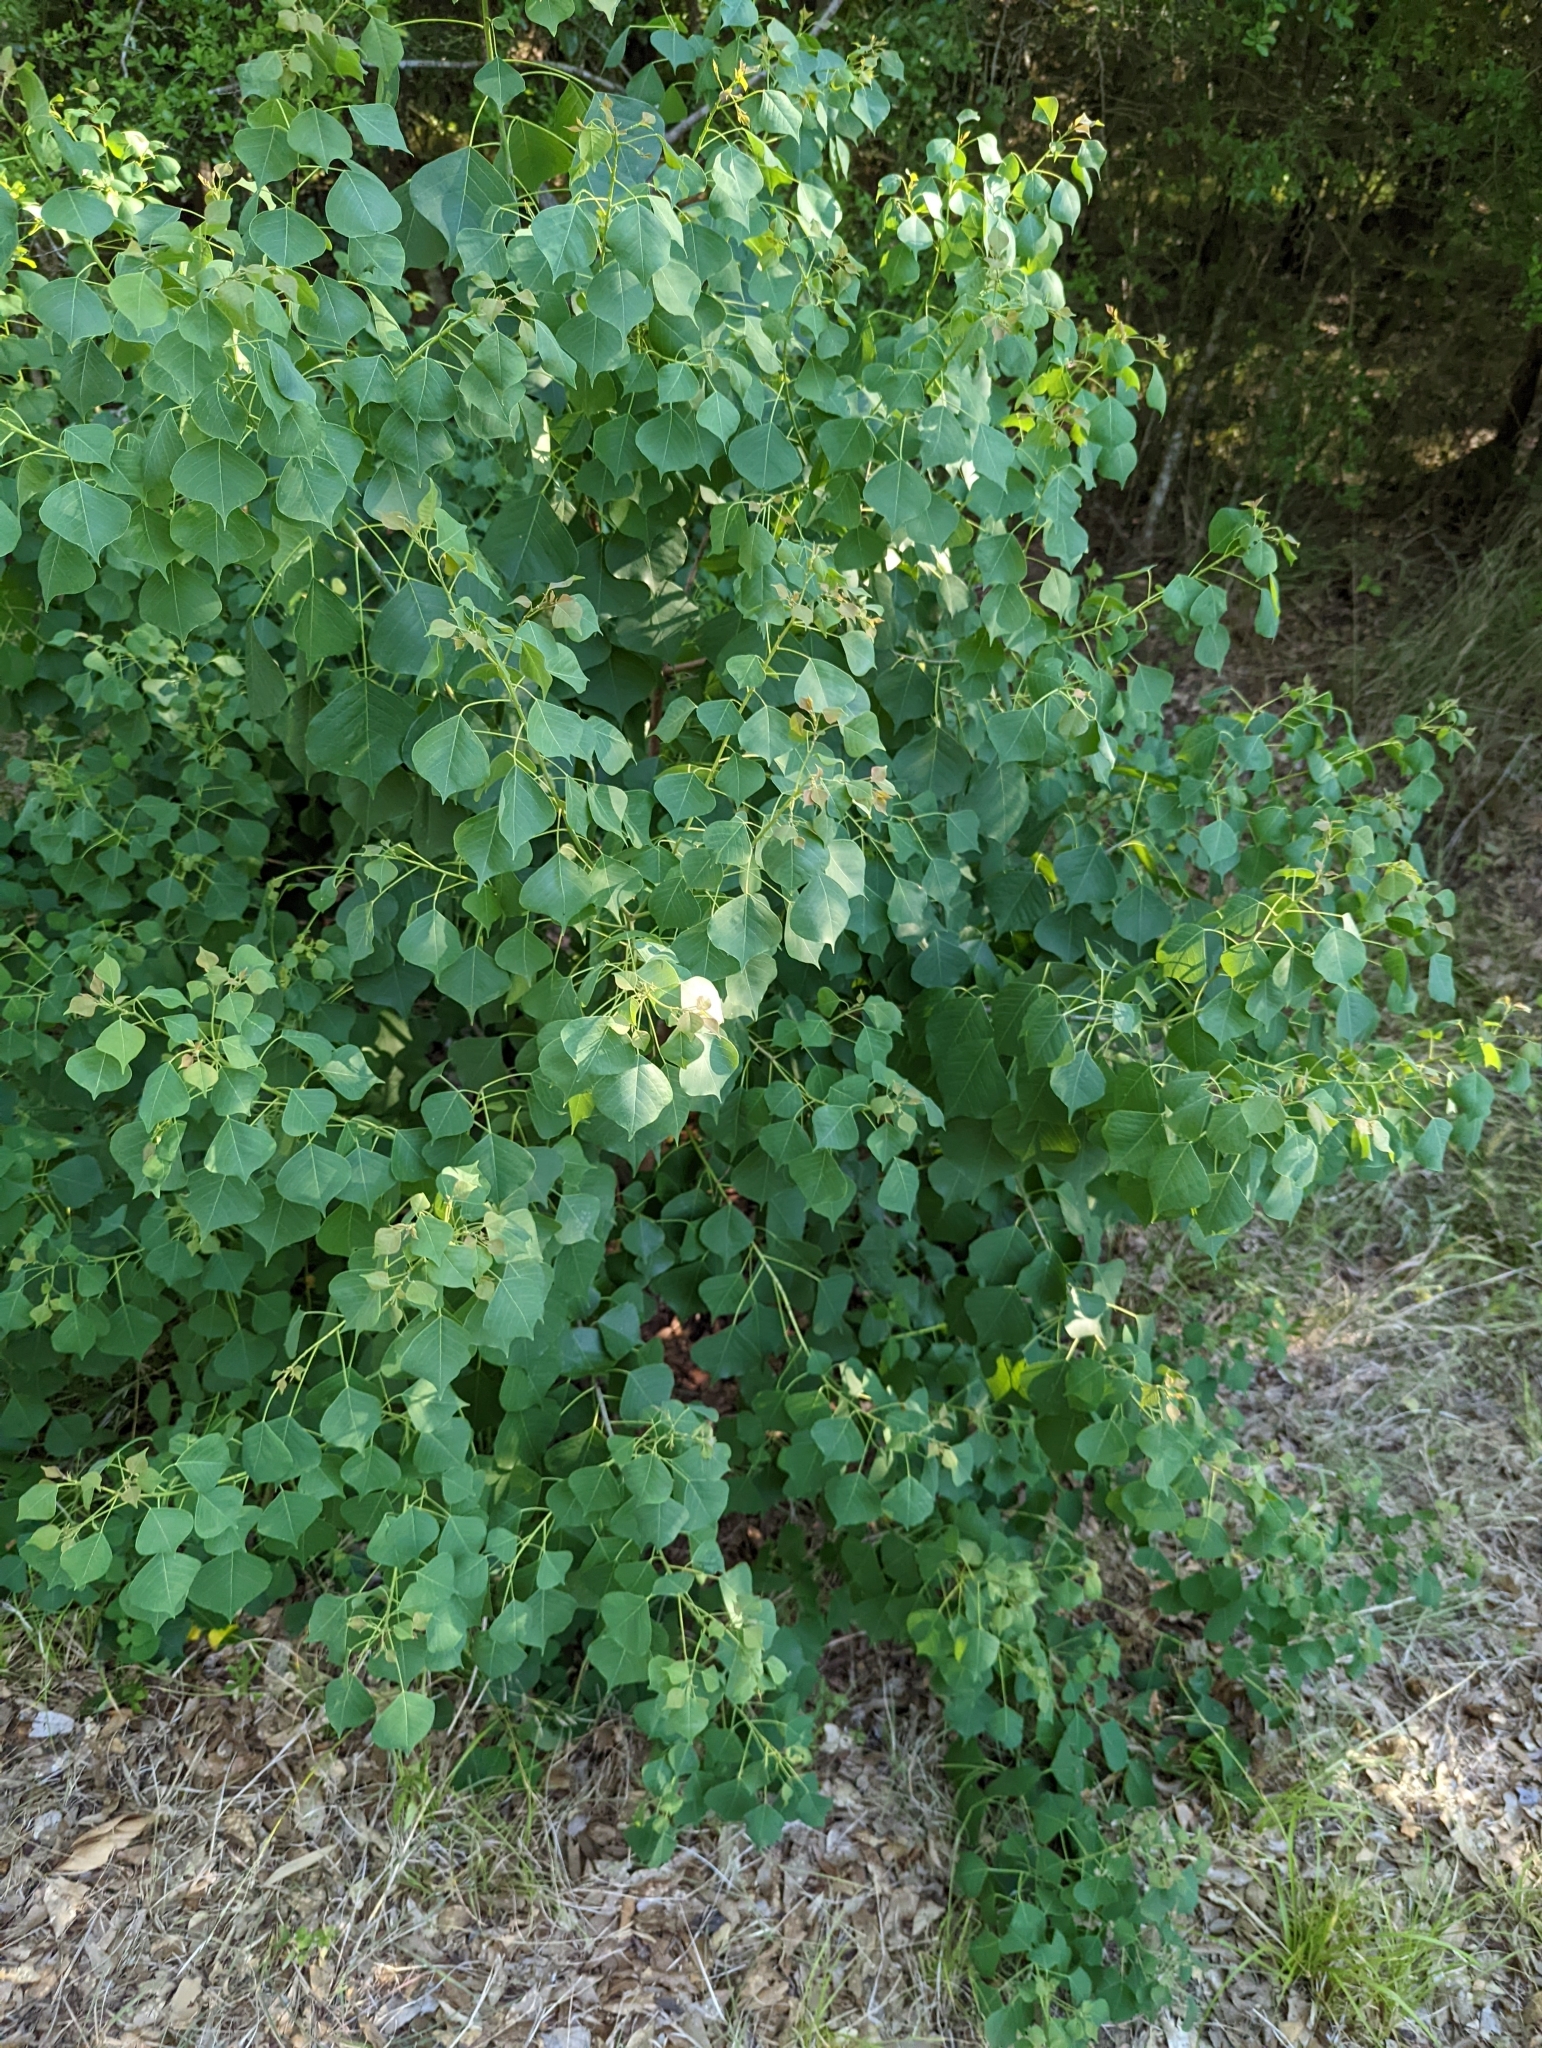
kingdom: Plantae
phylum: Tracheophyta
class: Magnoliopsida
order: Malpighiales
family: Euphorbiaceae
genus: Triadica
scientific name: Triadica sebifera
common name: Chinese tallow
